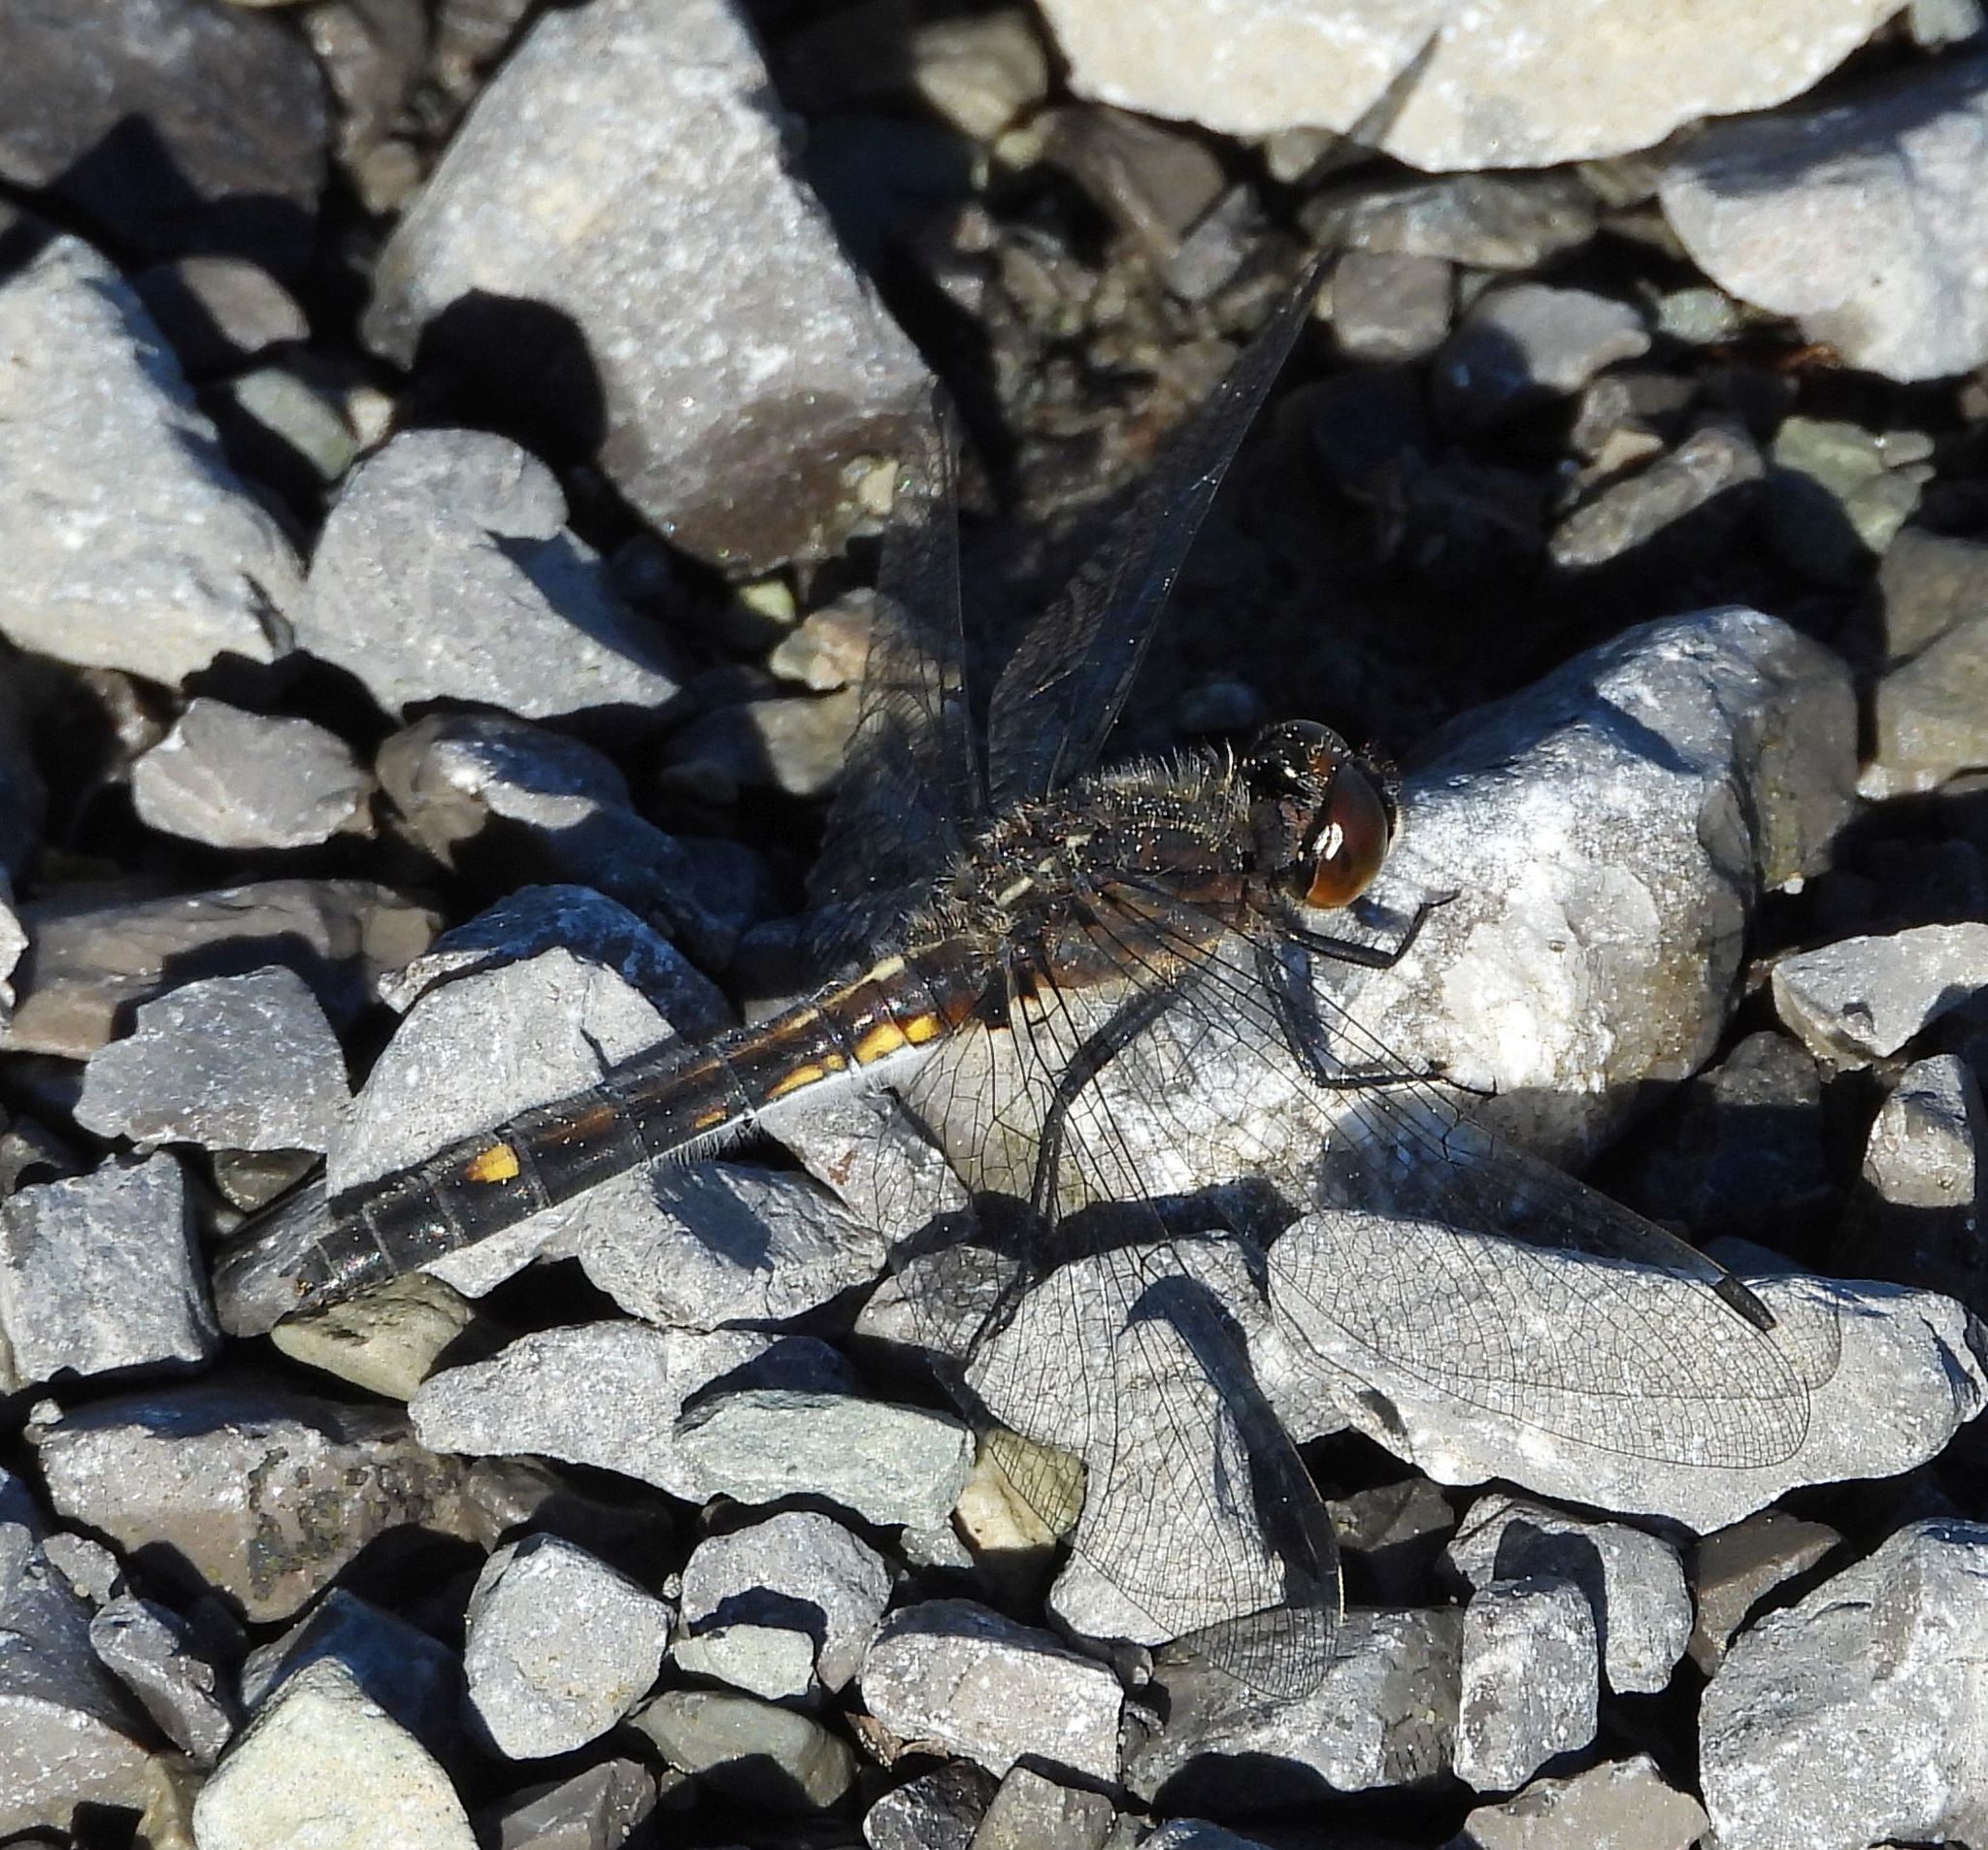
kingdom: Animalia
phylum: Arthropoda
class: Insecta
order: Odonata
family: Libellulidae
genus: Leucorrhinia
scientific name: Leucorrhinia intacta
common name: Dot-tailed whiteface
